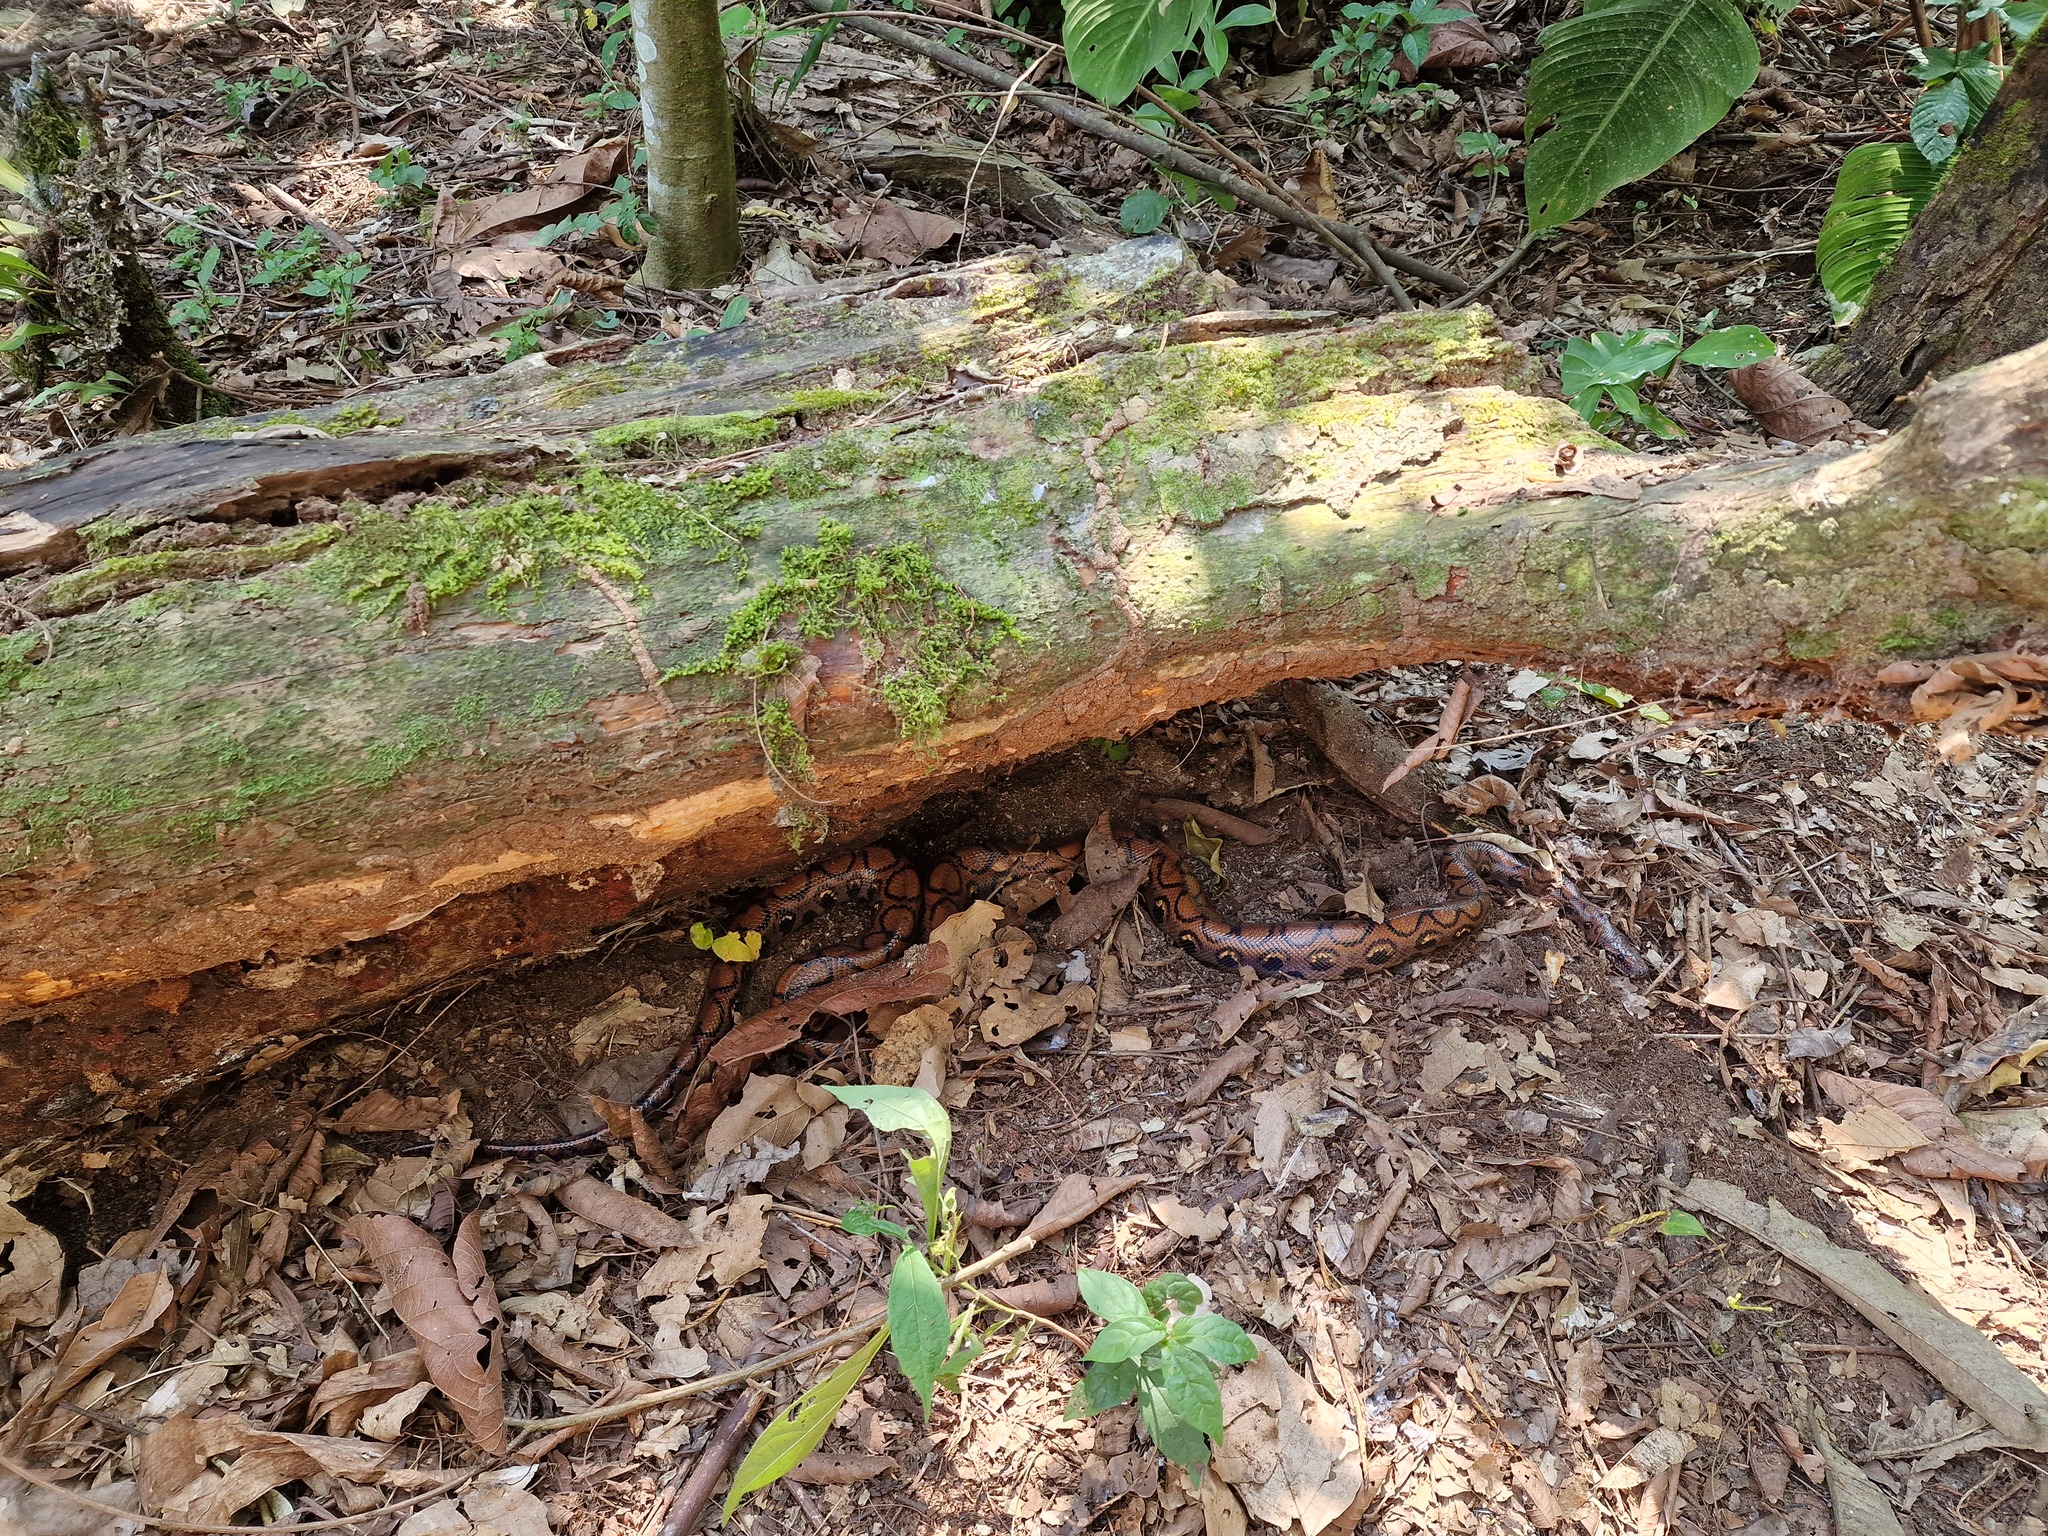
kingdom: Animalia
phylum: Chordata
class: Squamata
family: Boidae
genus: Epicrates
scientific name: Epicrates cenchria
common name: Rainbow boa
